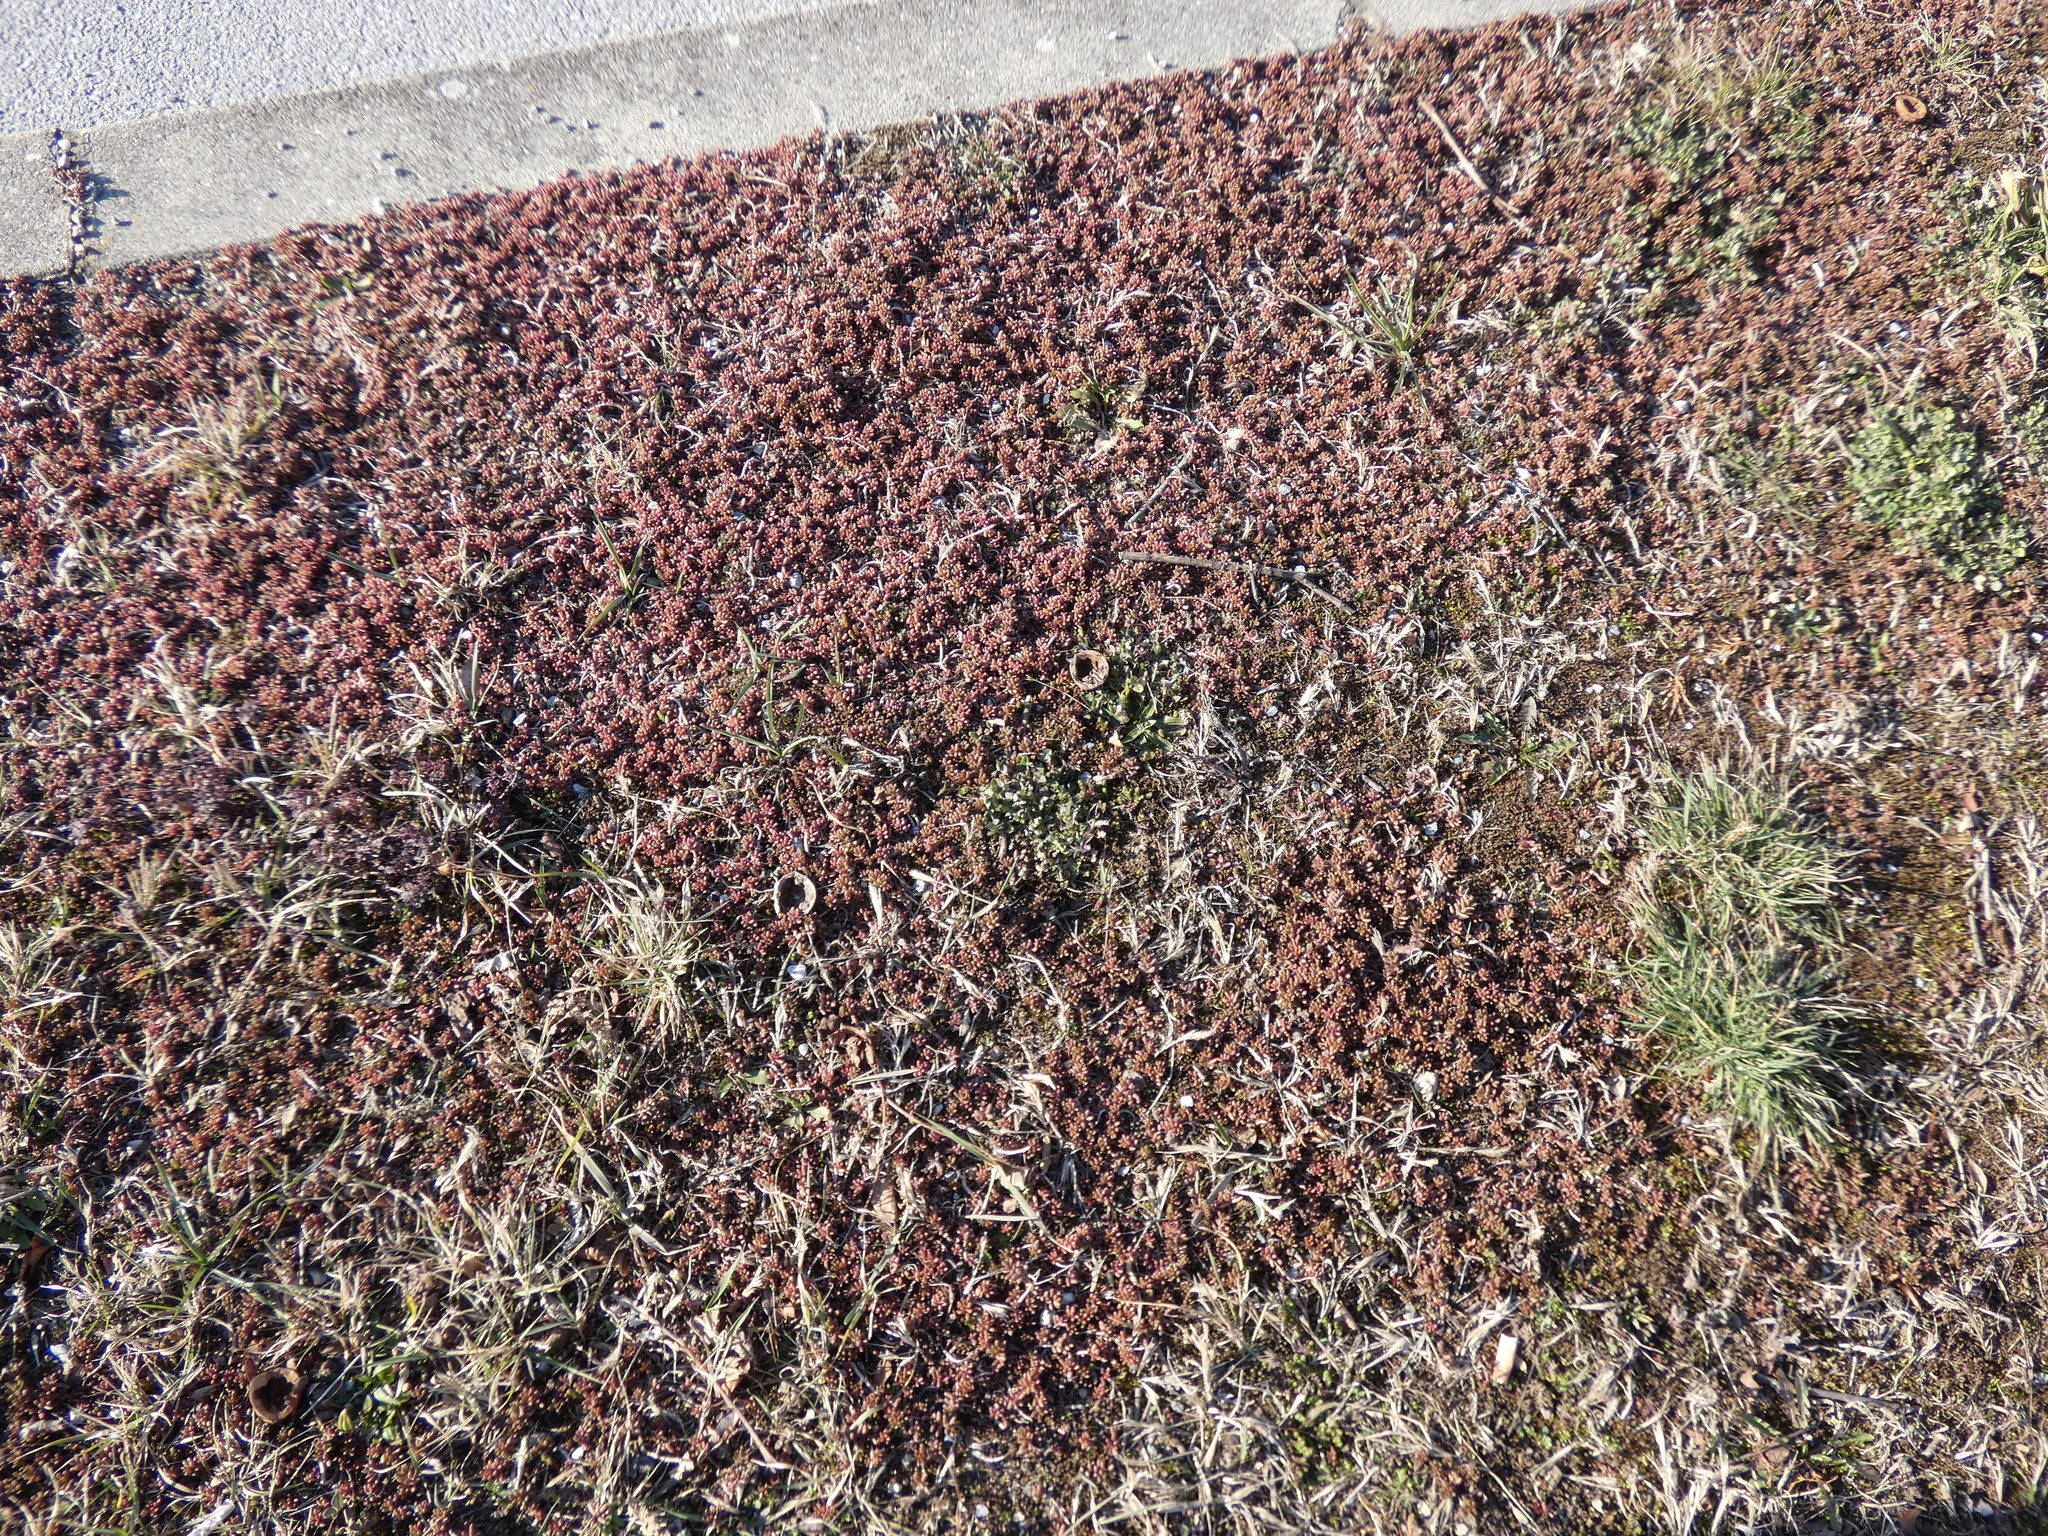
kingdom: Plantae
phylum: Tracheophyta
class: Magnoliopsida
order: Saxifragales
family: Crassulaceae
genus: Sedum
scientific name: Sedum album
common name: White stonecrop
